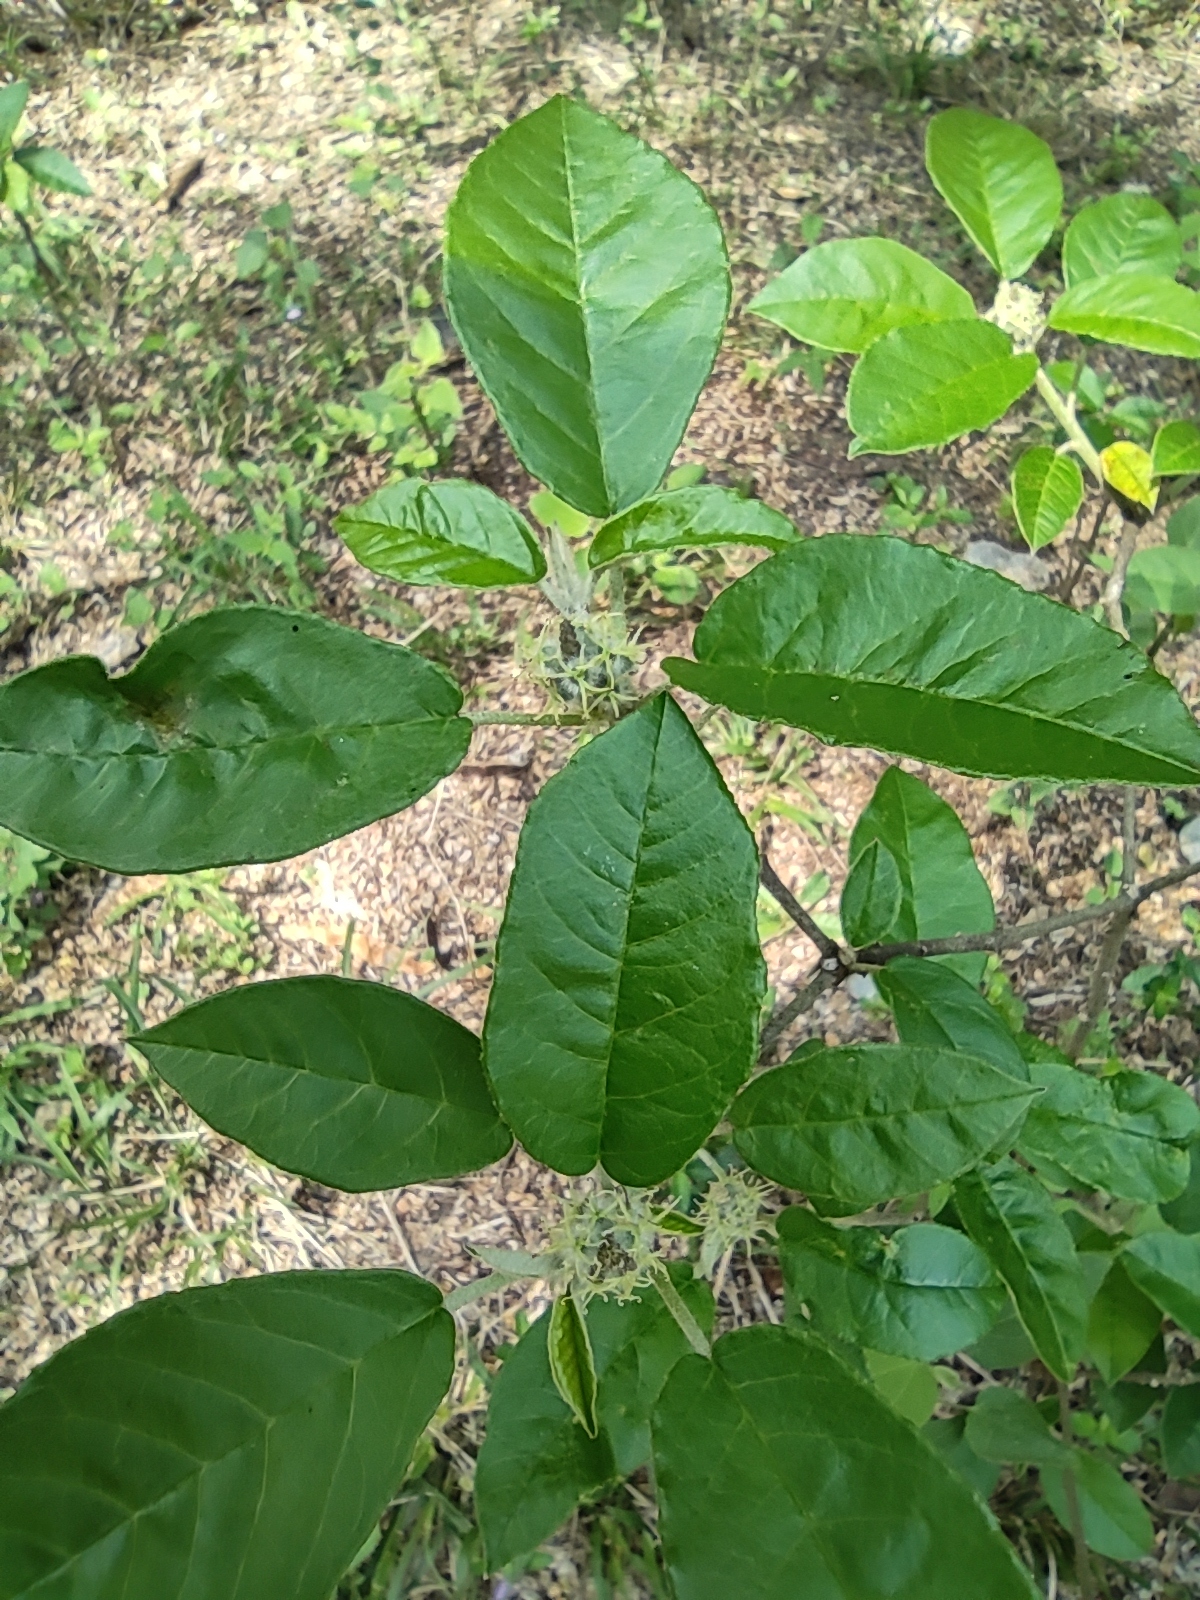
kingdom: Plantae
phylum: Tracheophyta
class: Magnoliopsida
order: Malpighiales
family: Euphorbiaceae
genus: Croton
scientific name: Croton cortesianus
